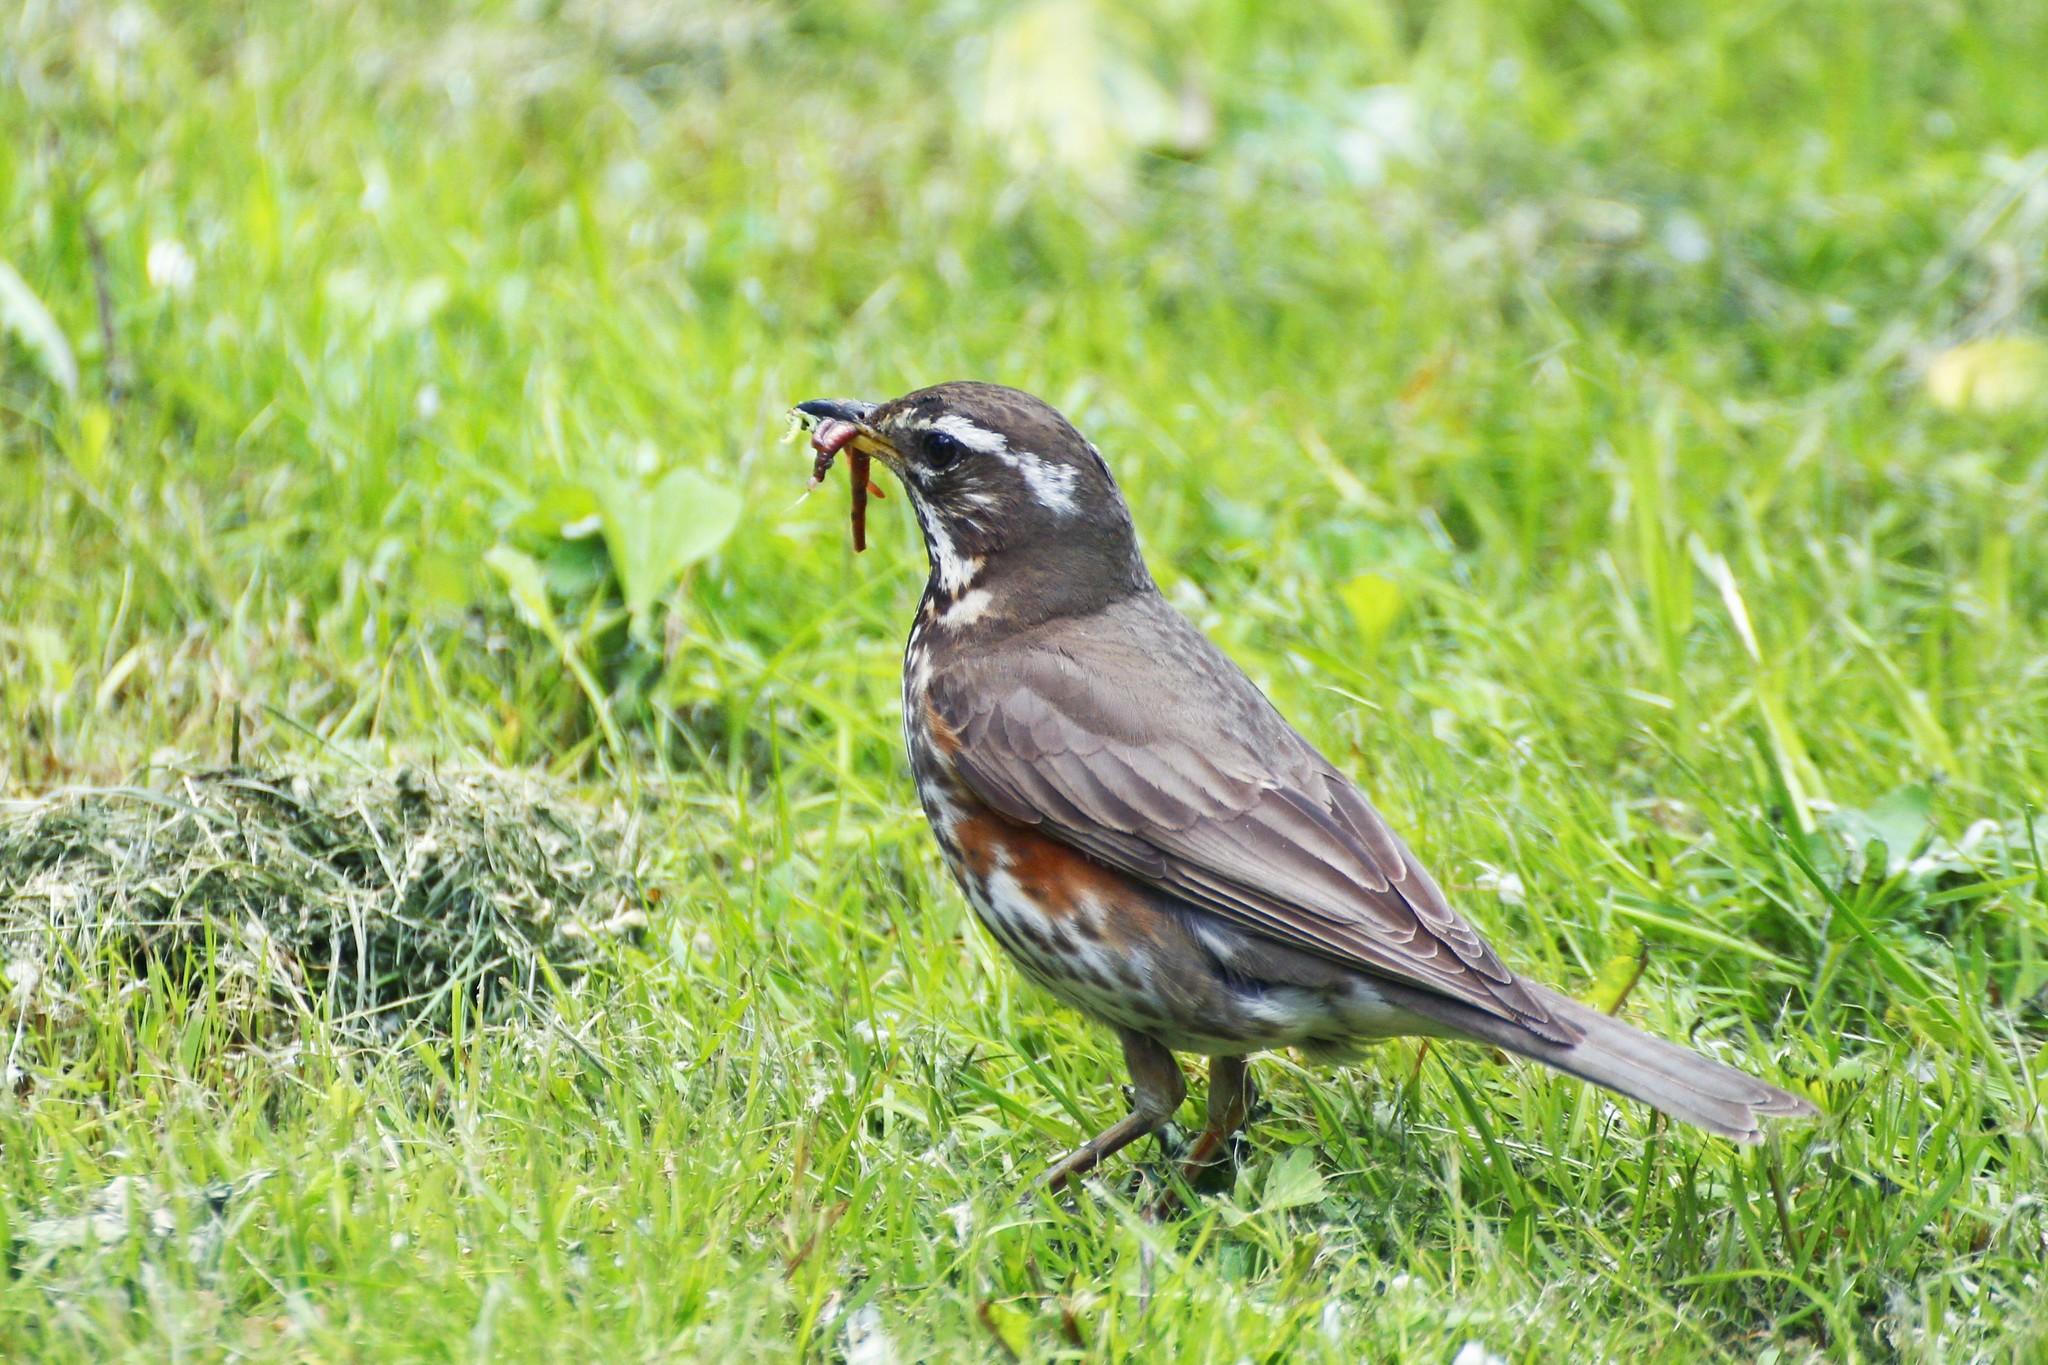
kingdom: Animalia
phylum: Chordata
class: Aves
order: Passeriformes
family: Turdidae
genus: Turdus
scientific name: Turdus iliacus
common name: Redwing
